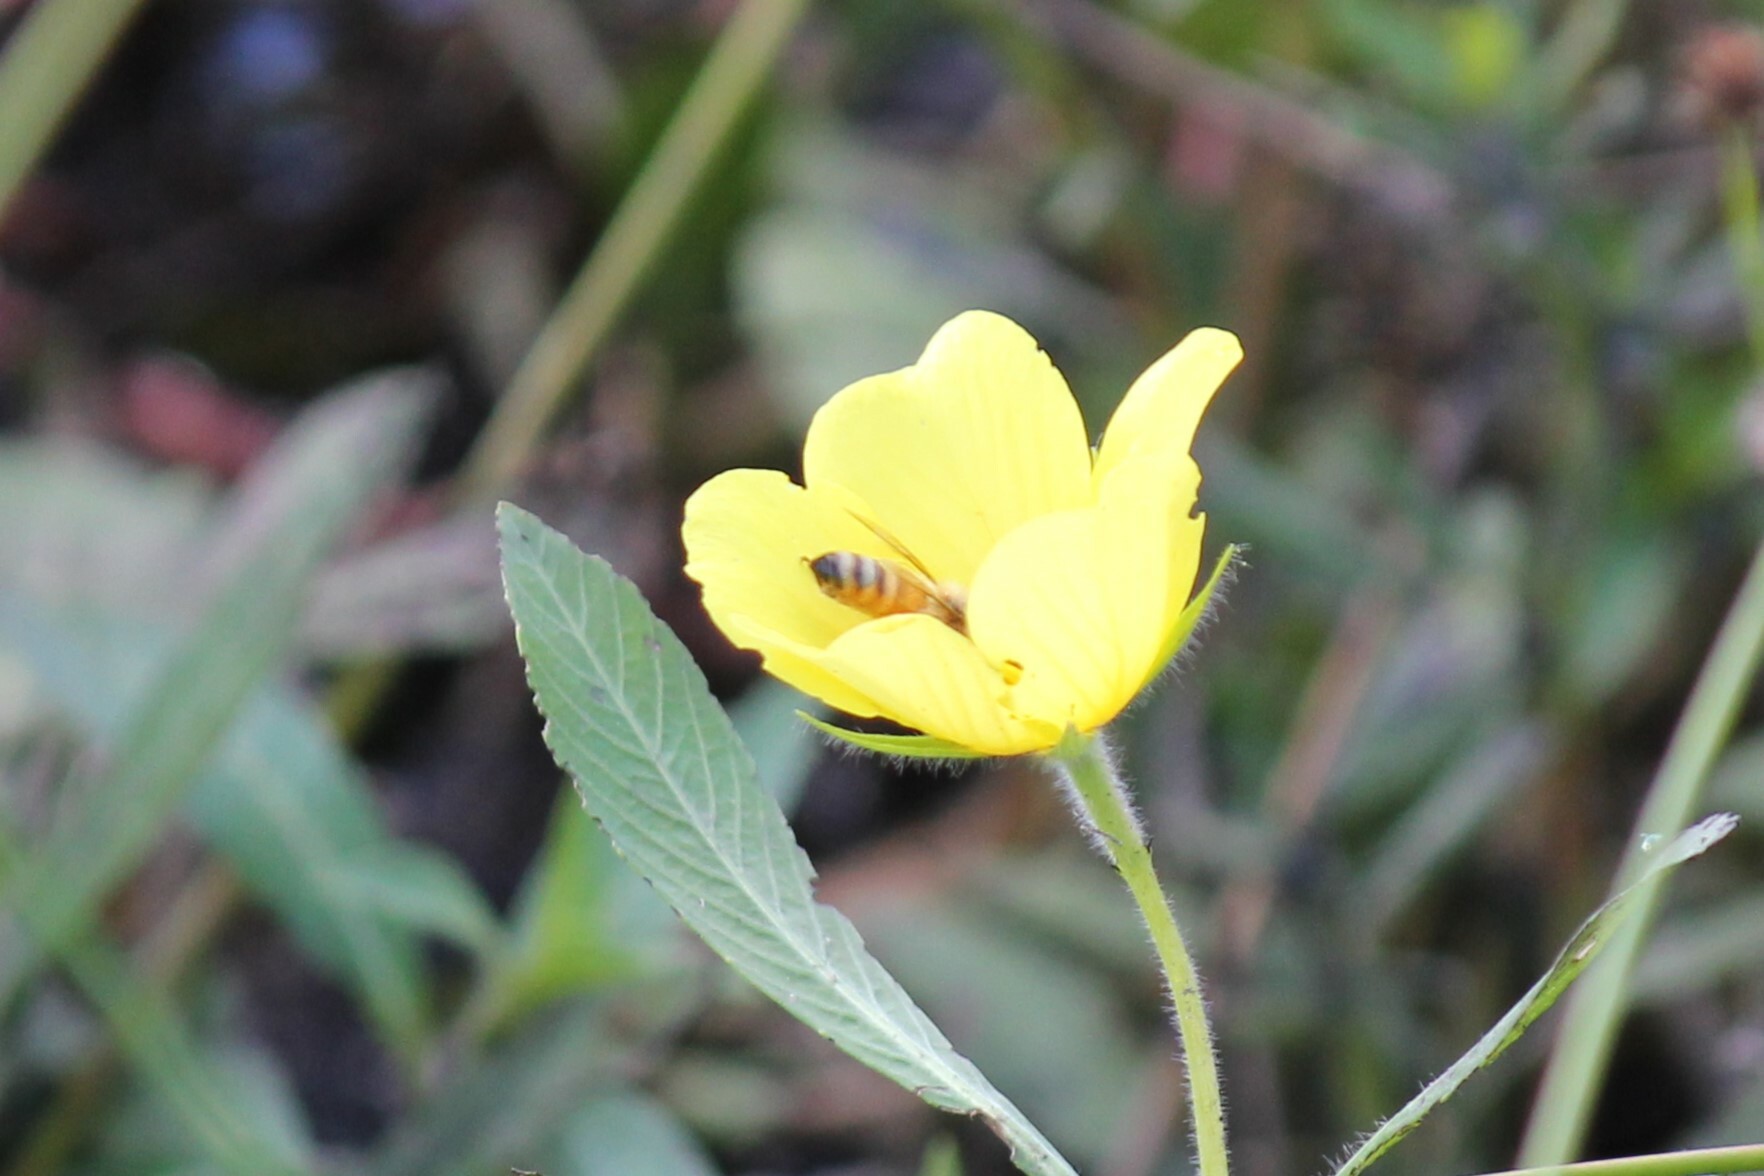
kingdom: Animalia
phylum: Arthropoda
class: Insecta
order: Hymenoptera
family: Apidae
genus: Apis
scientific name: Apis mellifera
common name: Honey bee
